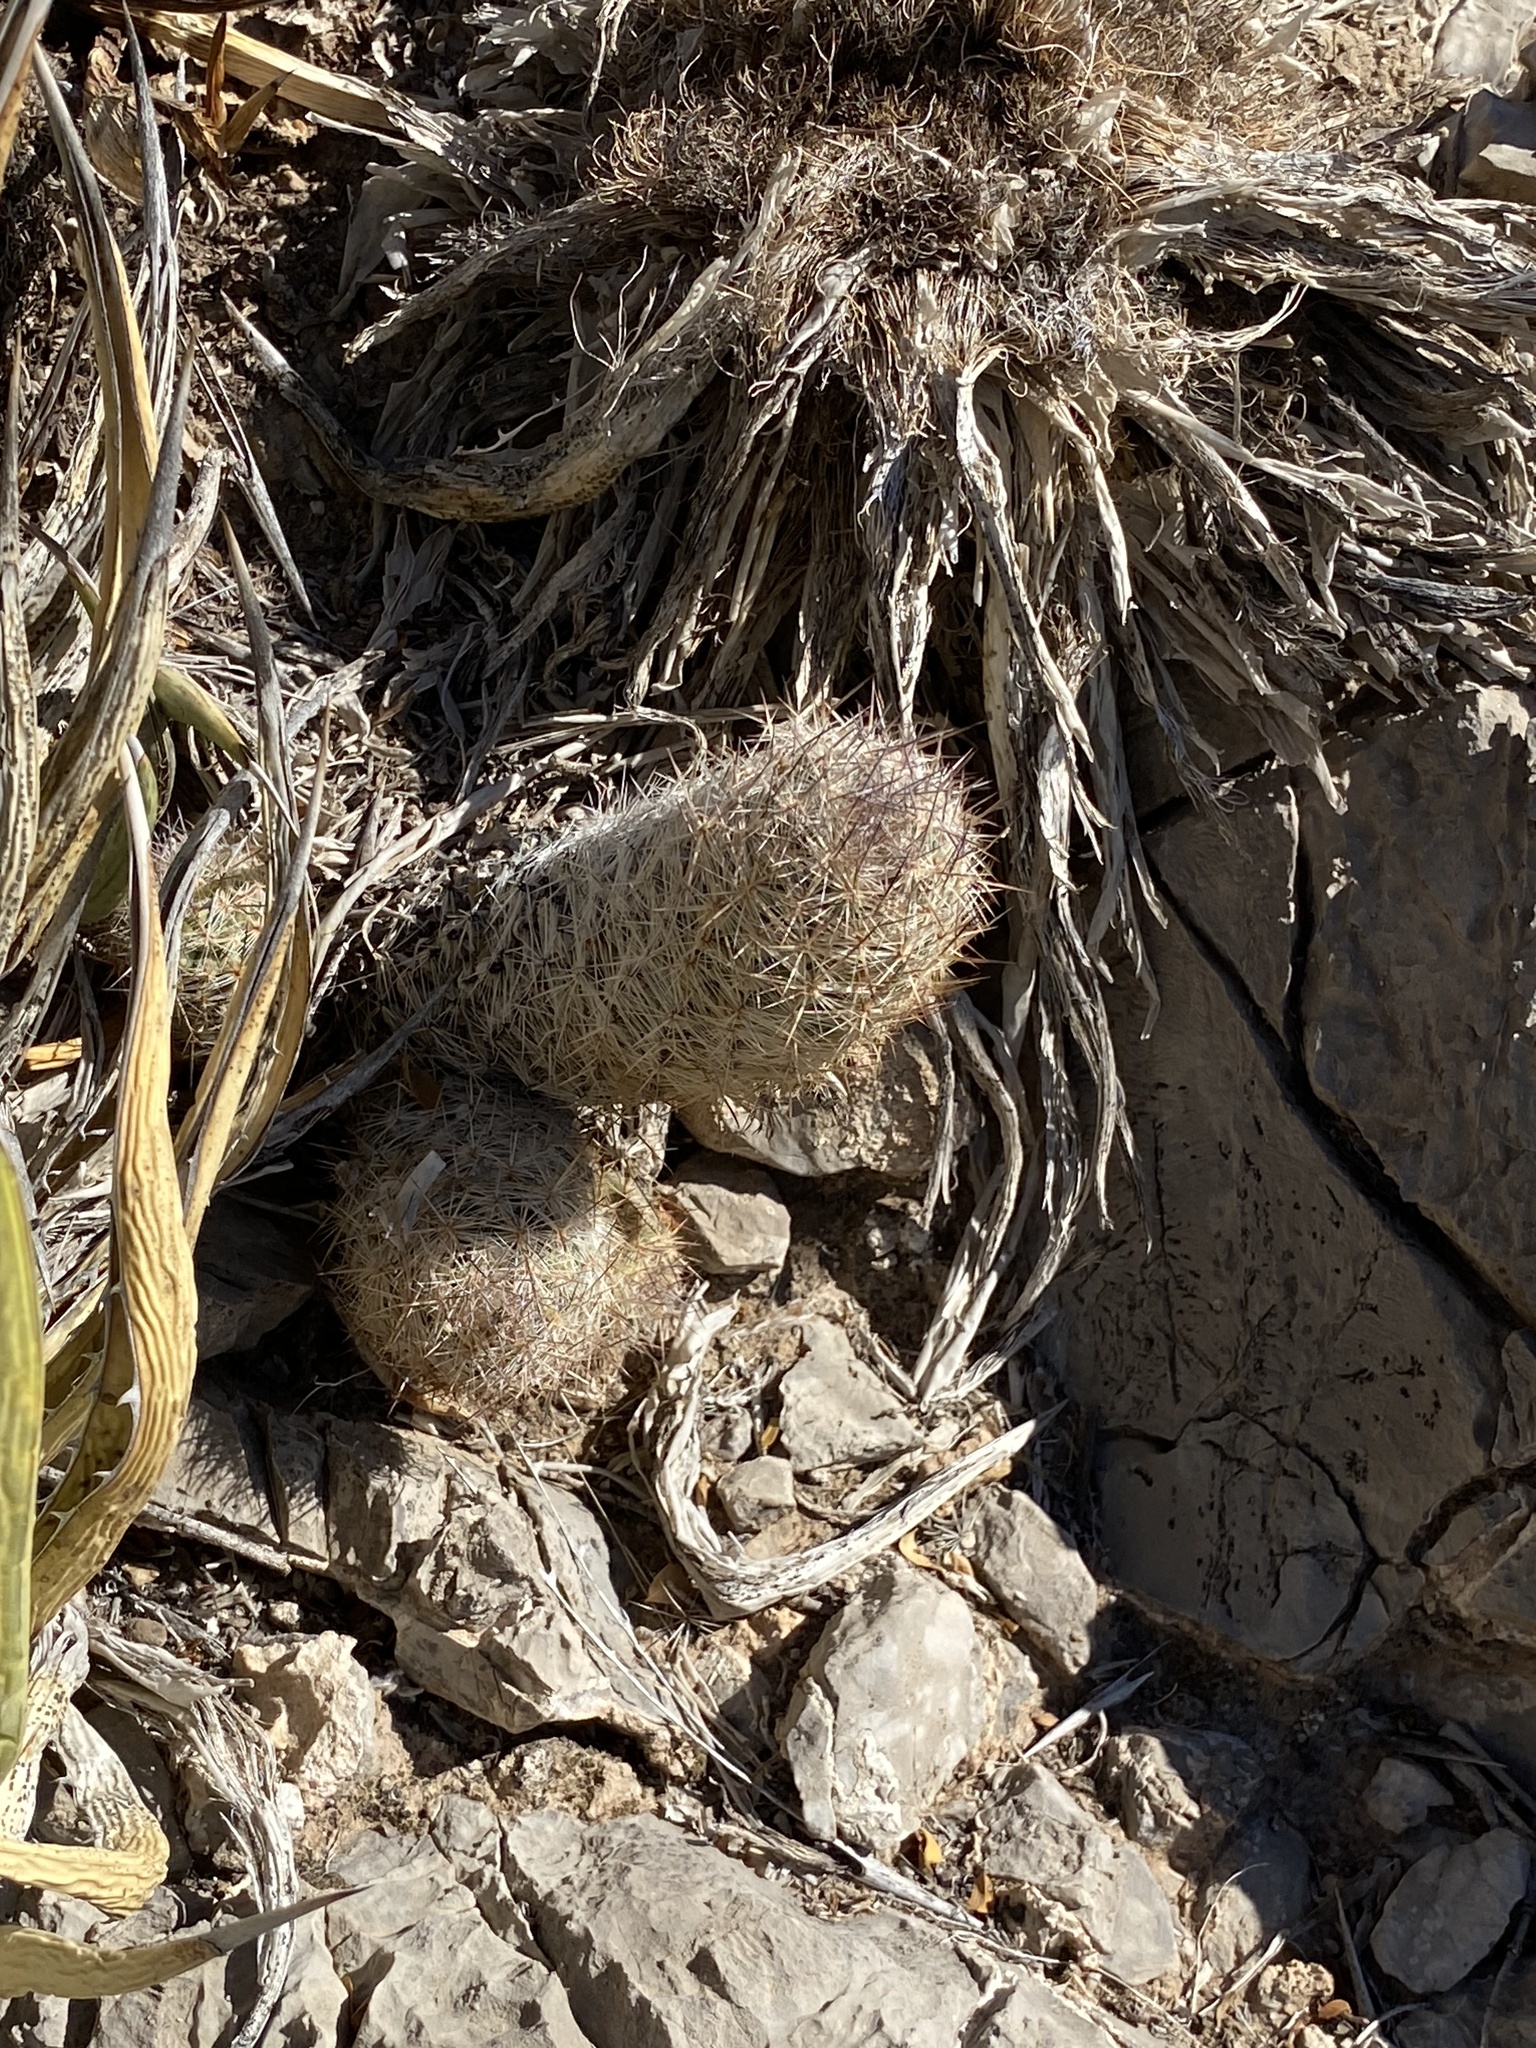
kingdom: Plantae
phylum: Tracheophyta
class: Magnoliopsida
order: Caryophyllales
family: Cactaceae
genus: Pelecyphora
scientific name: Pelecyphora tuberculosa
